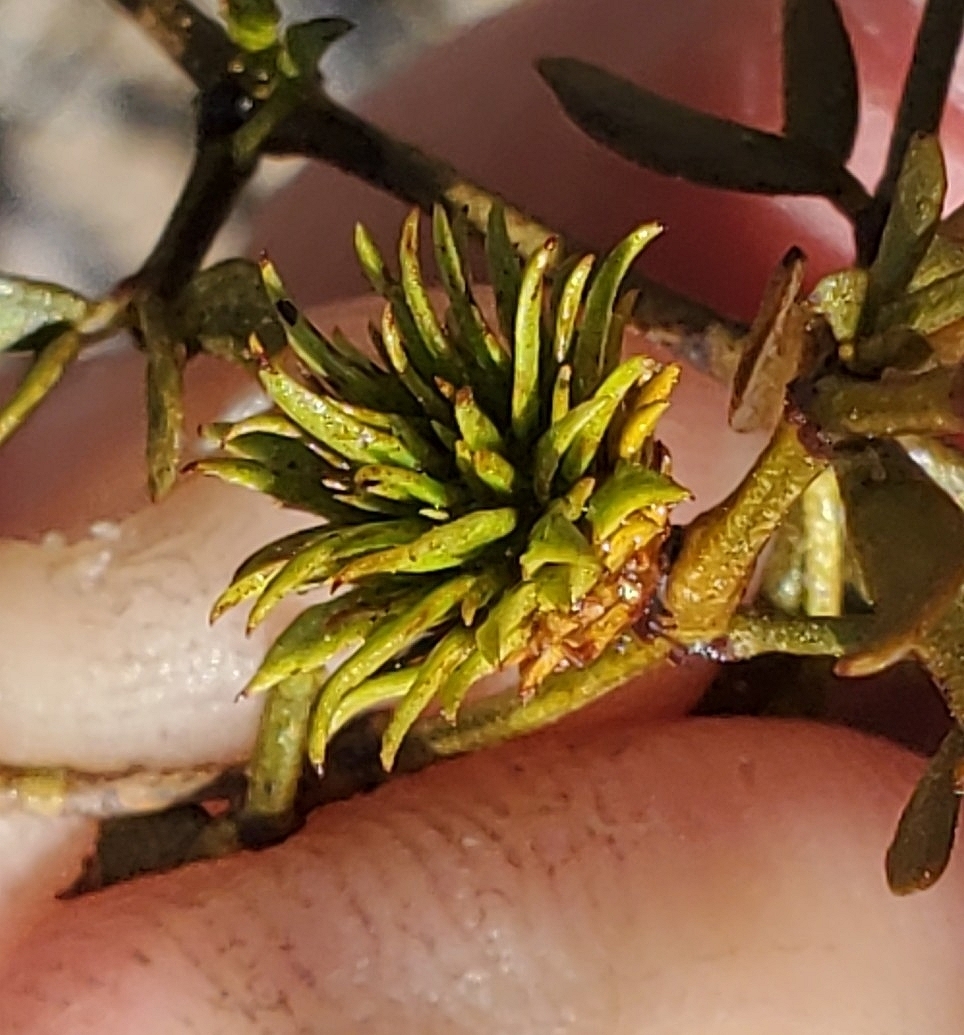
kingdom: Animalia
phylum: Arthropoda
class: Insecta
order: Diptera
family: Cecidomyiidae
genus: Asphondylia
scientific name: Asphondylia rosetta
